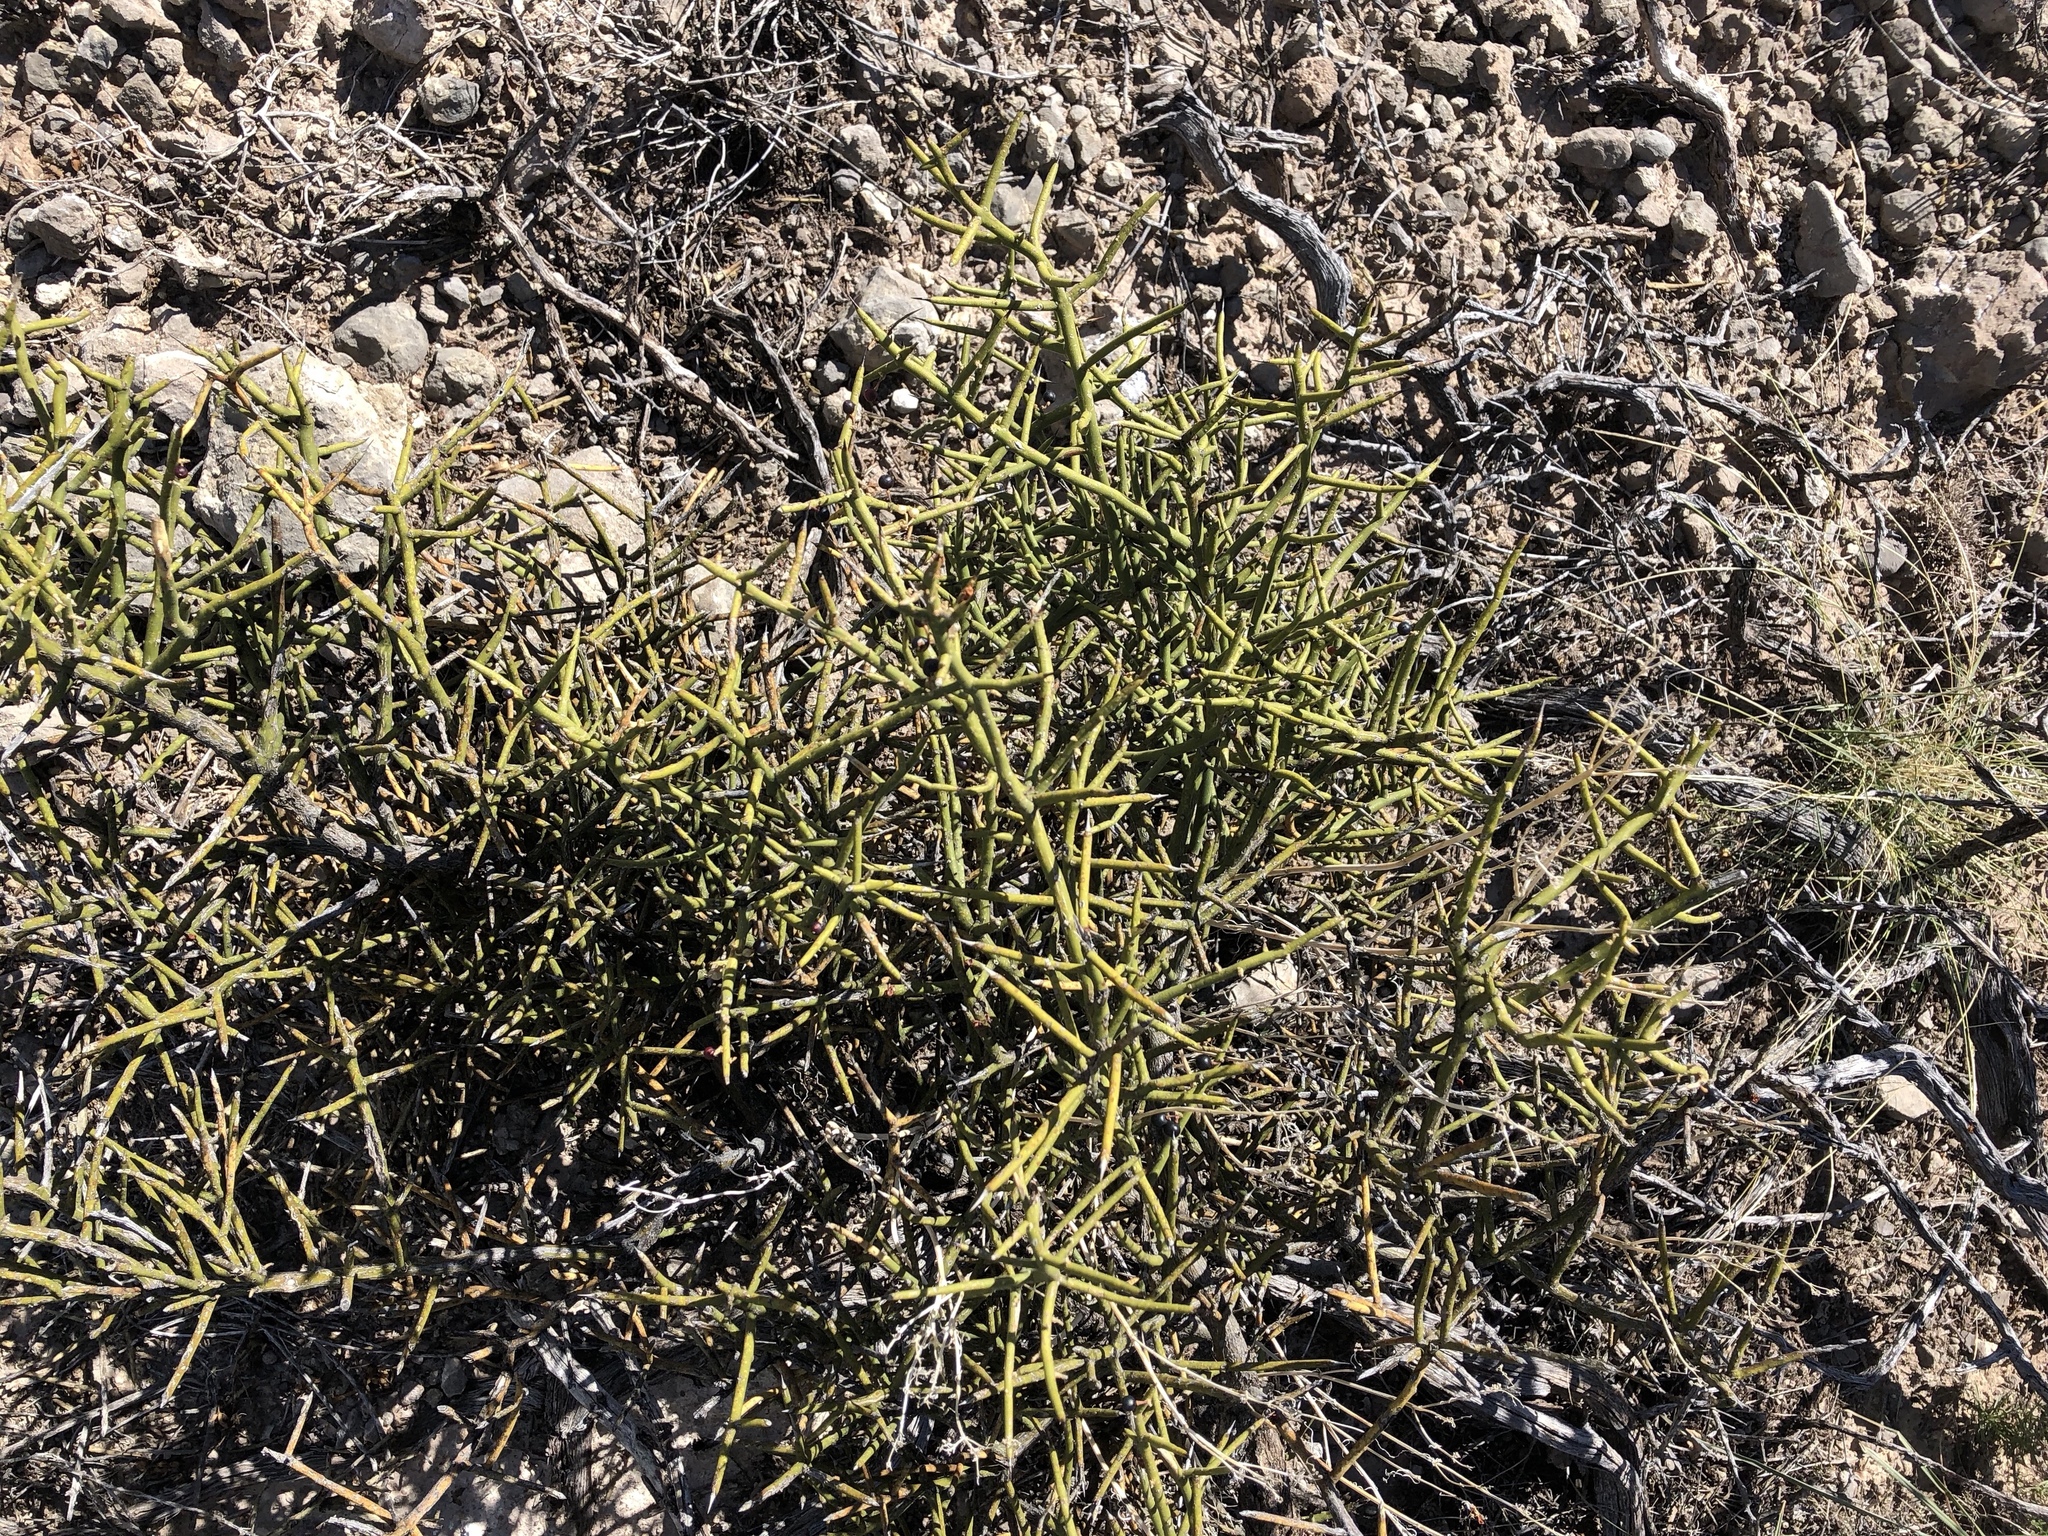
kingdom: Plantae
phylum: Tracheophyta
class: Magnoliopsida
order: Brassicales
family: Koeberliniaceae
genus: Koeberlinia
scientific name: Koeberlinia spinosa
